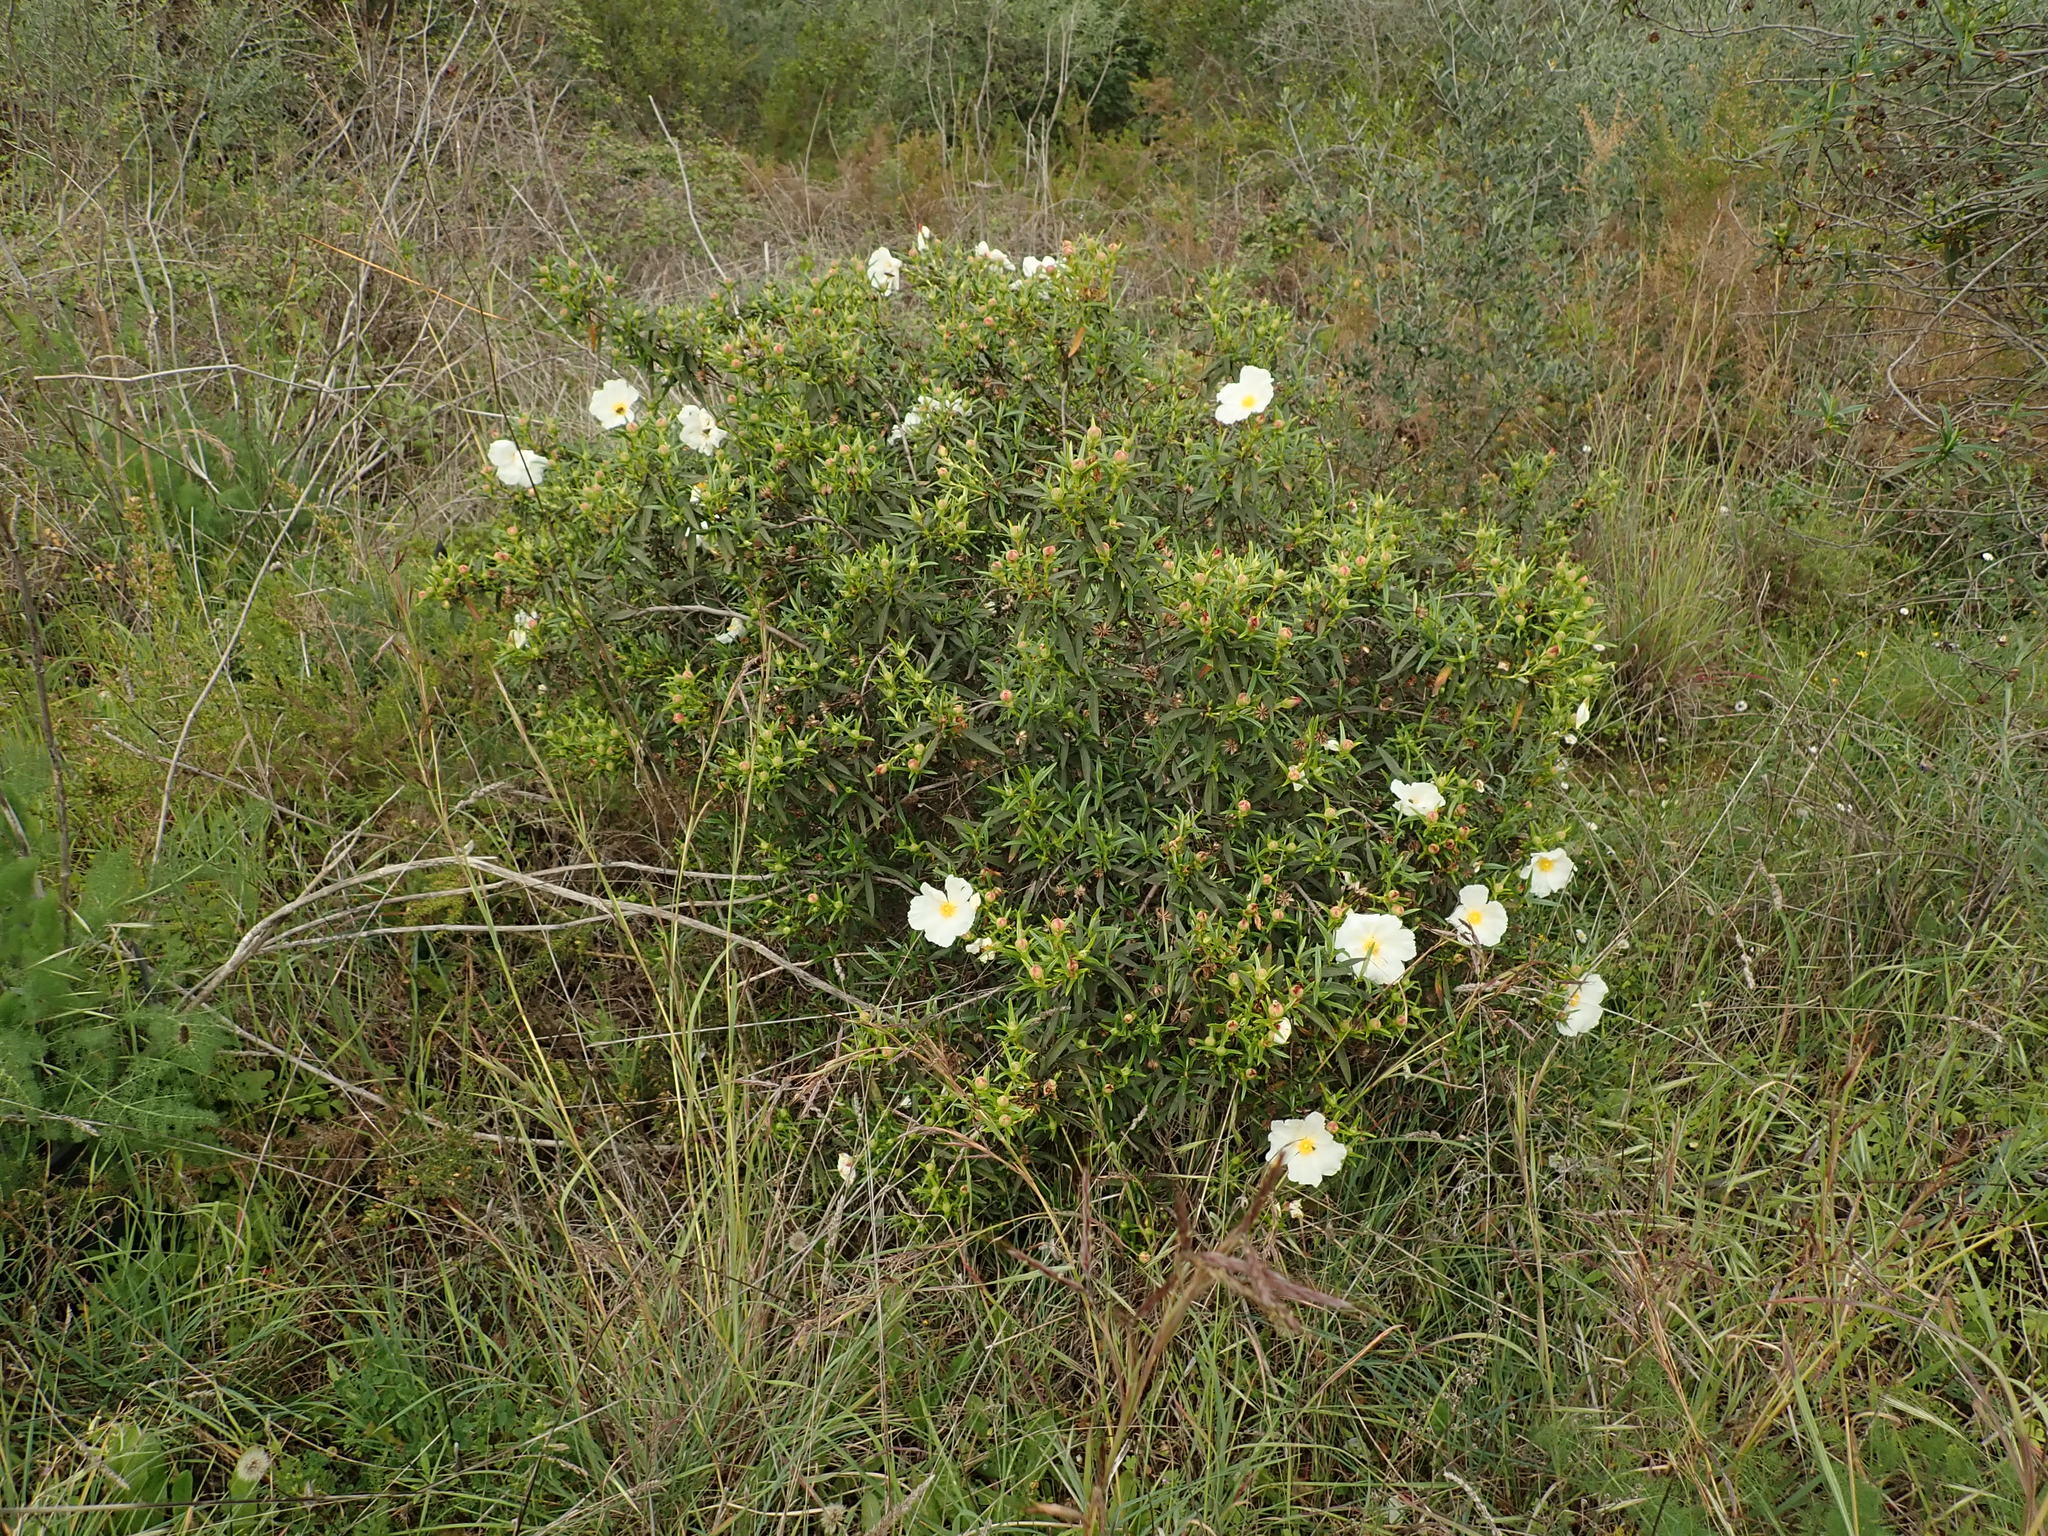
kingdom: Plantae
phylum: Tracheophyta
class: Magnoliopsida
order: Malvales
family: Cistaceae
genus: Cistus
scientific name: Cistus ladanifer
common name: Common gum cistus
